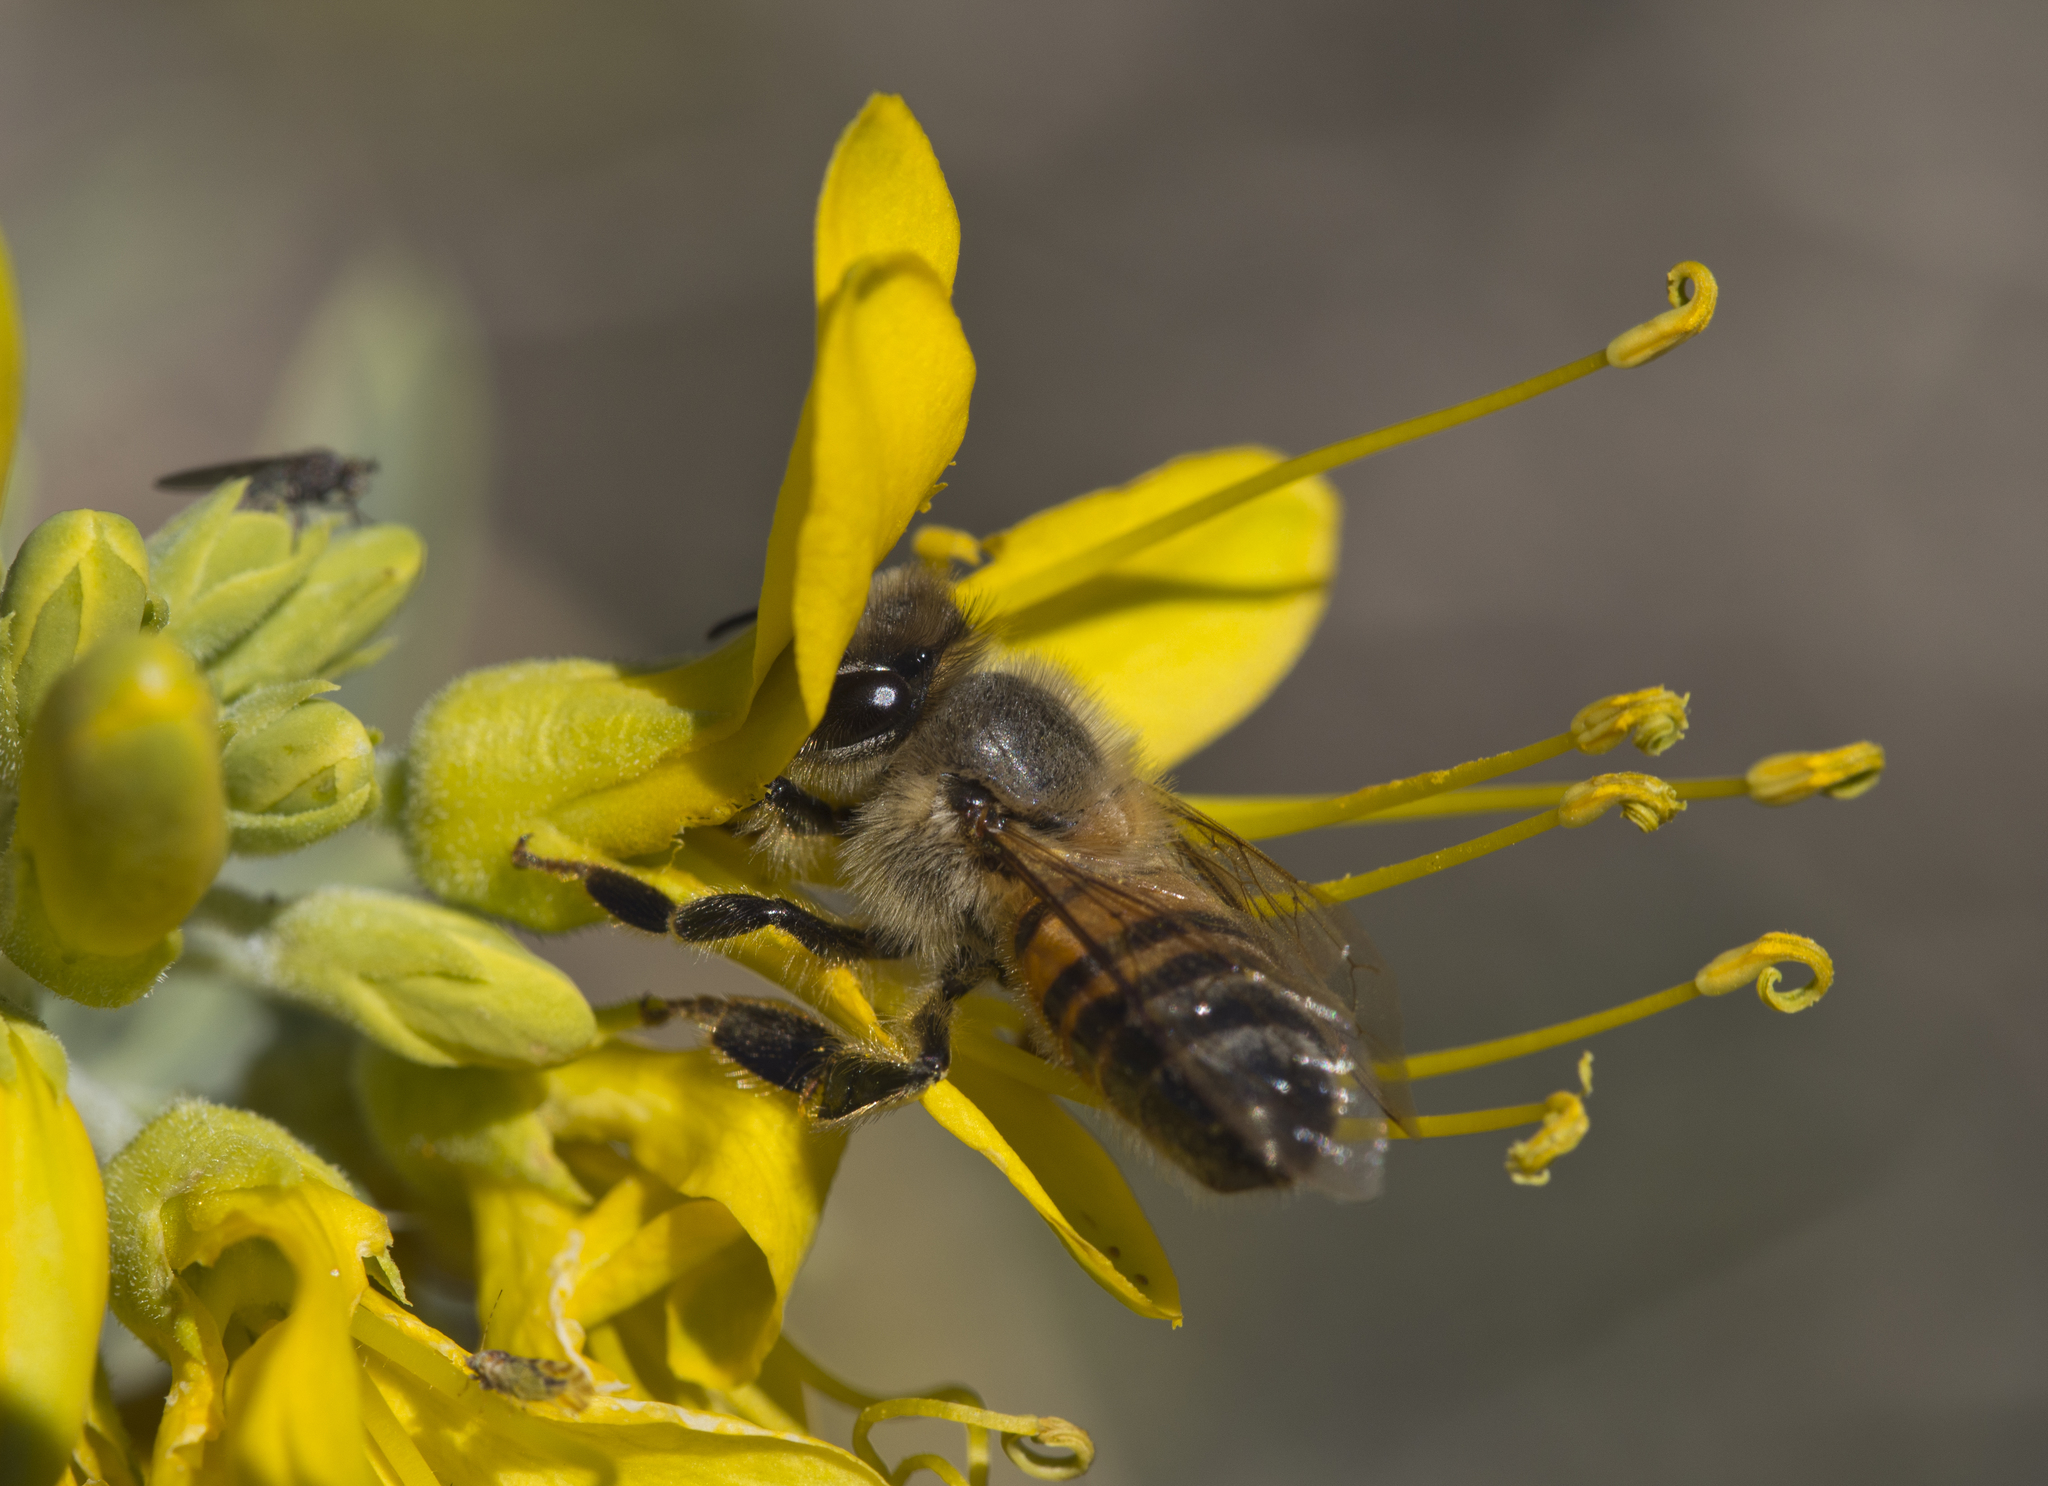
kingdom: Animalia
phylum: Arthropoda
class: Insecta
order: Hymenoptera
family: Apidae
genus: Apis
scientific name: Apis mellifera
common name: Honey bee
